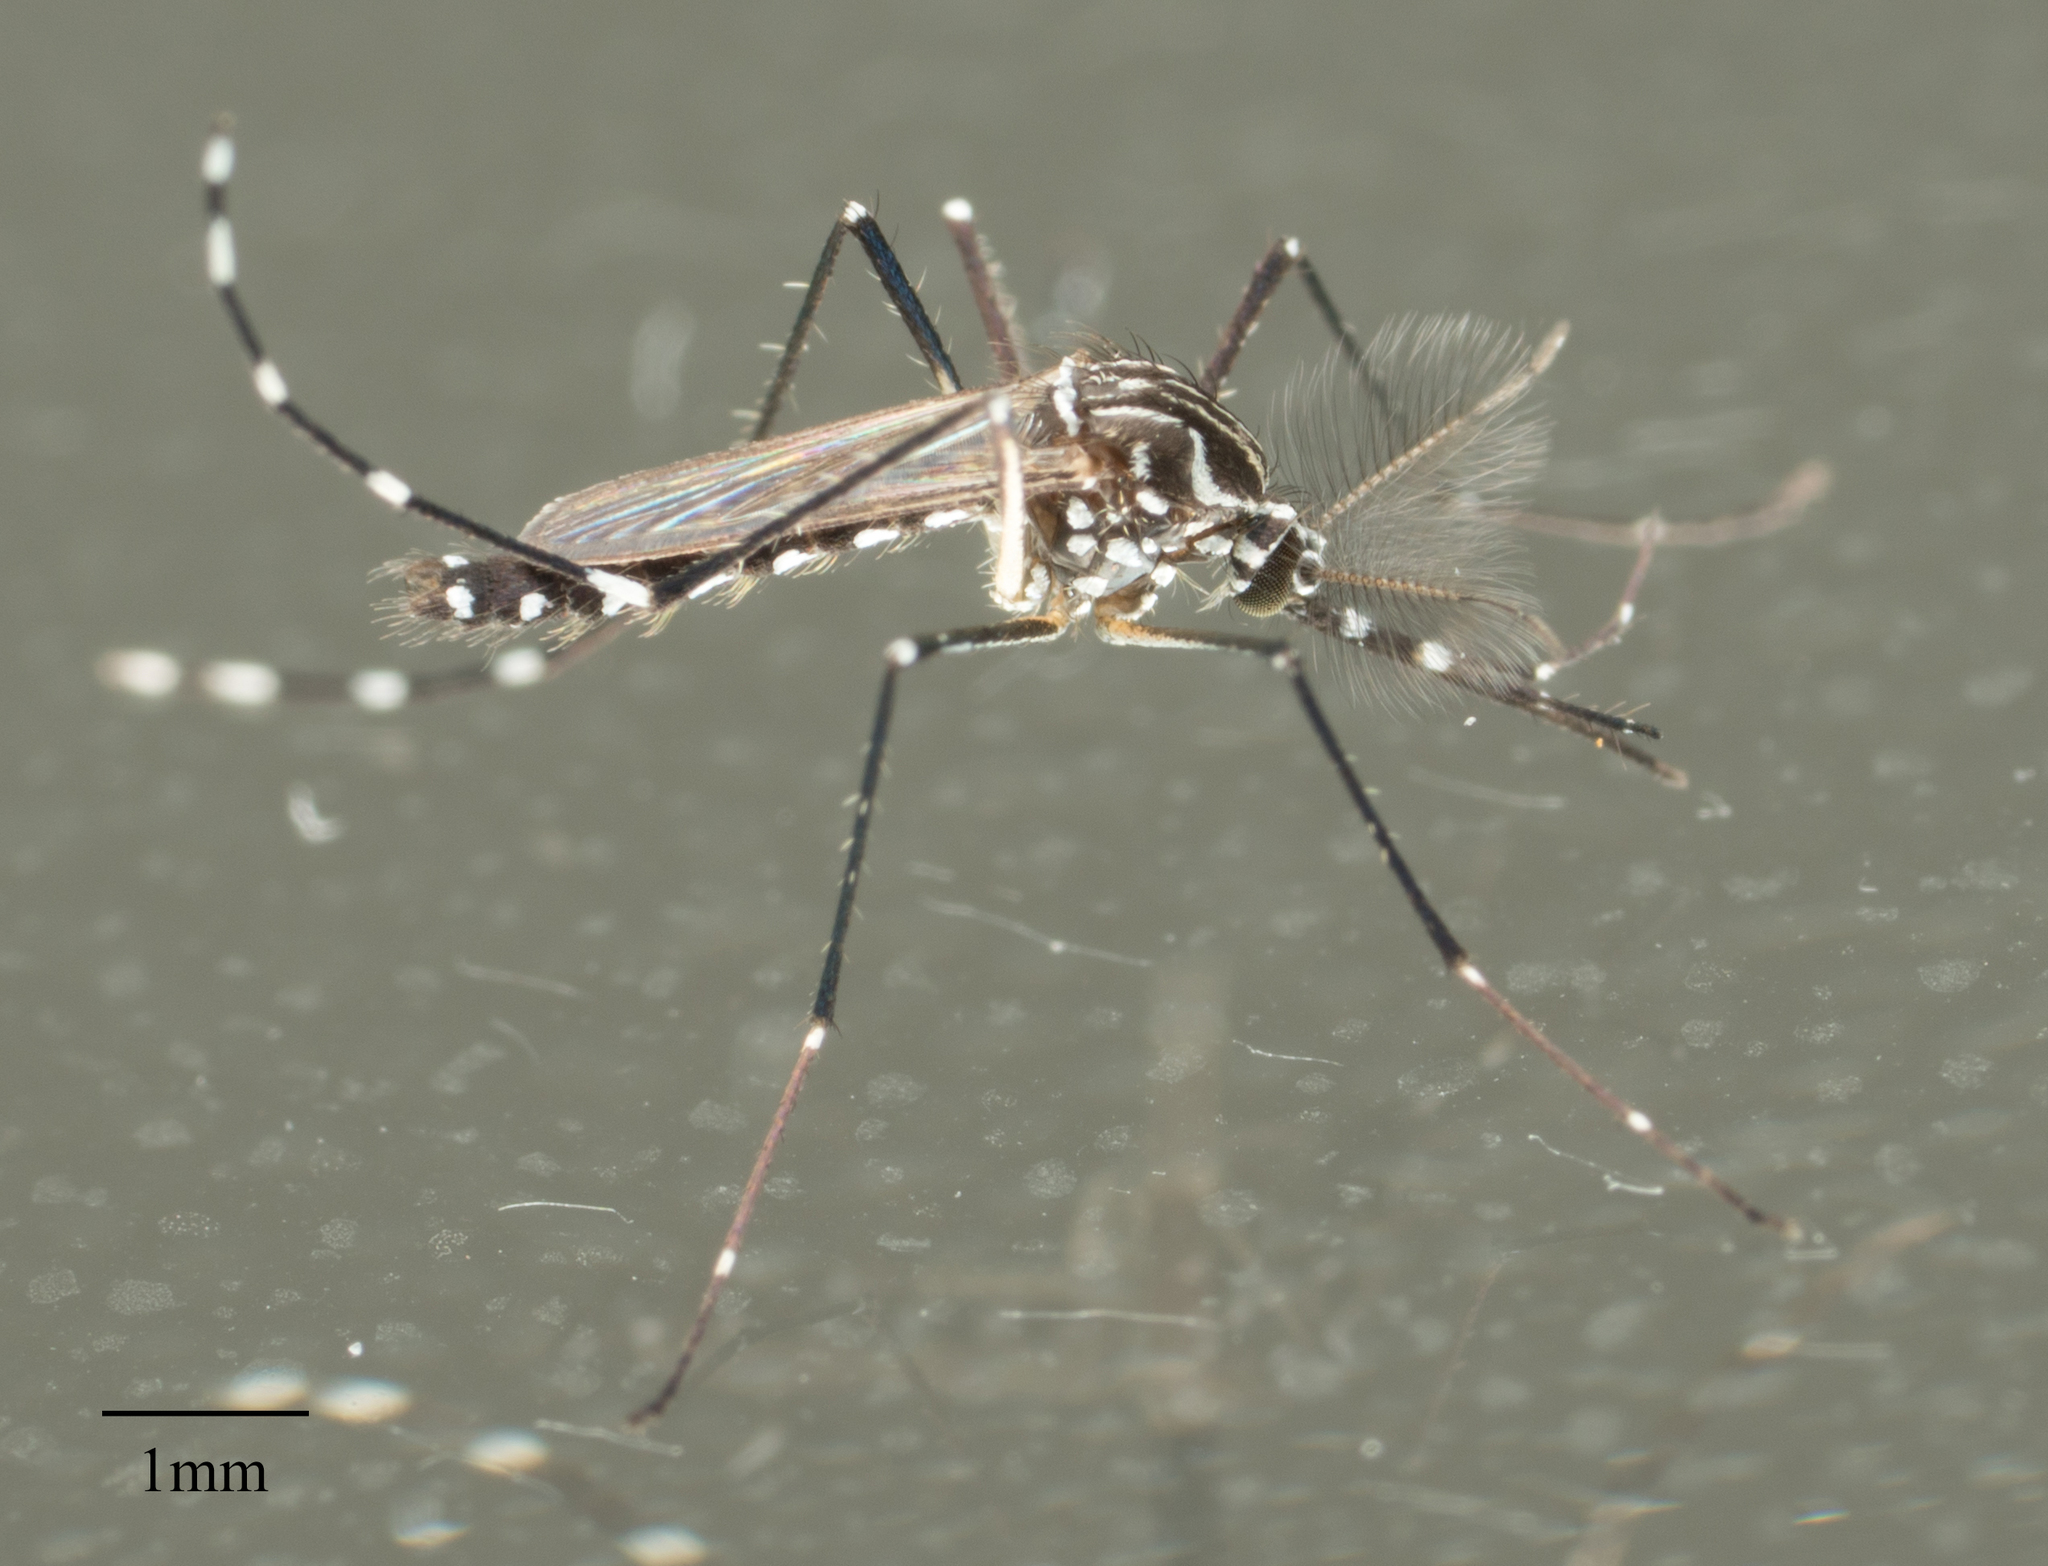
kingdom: Animalia
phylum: Arthropoda
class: Insecta
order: Diptera
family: Culicidae
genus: Aedes
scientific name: Aedes aegypti
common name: Yellow fever mosquito
